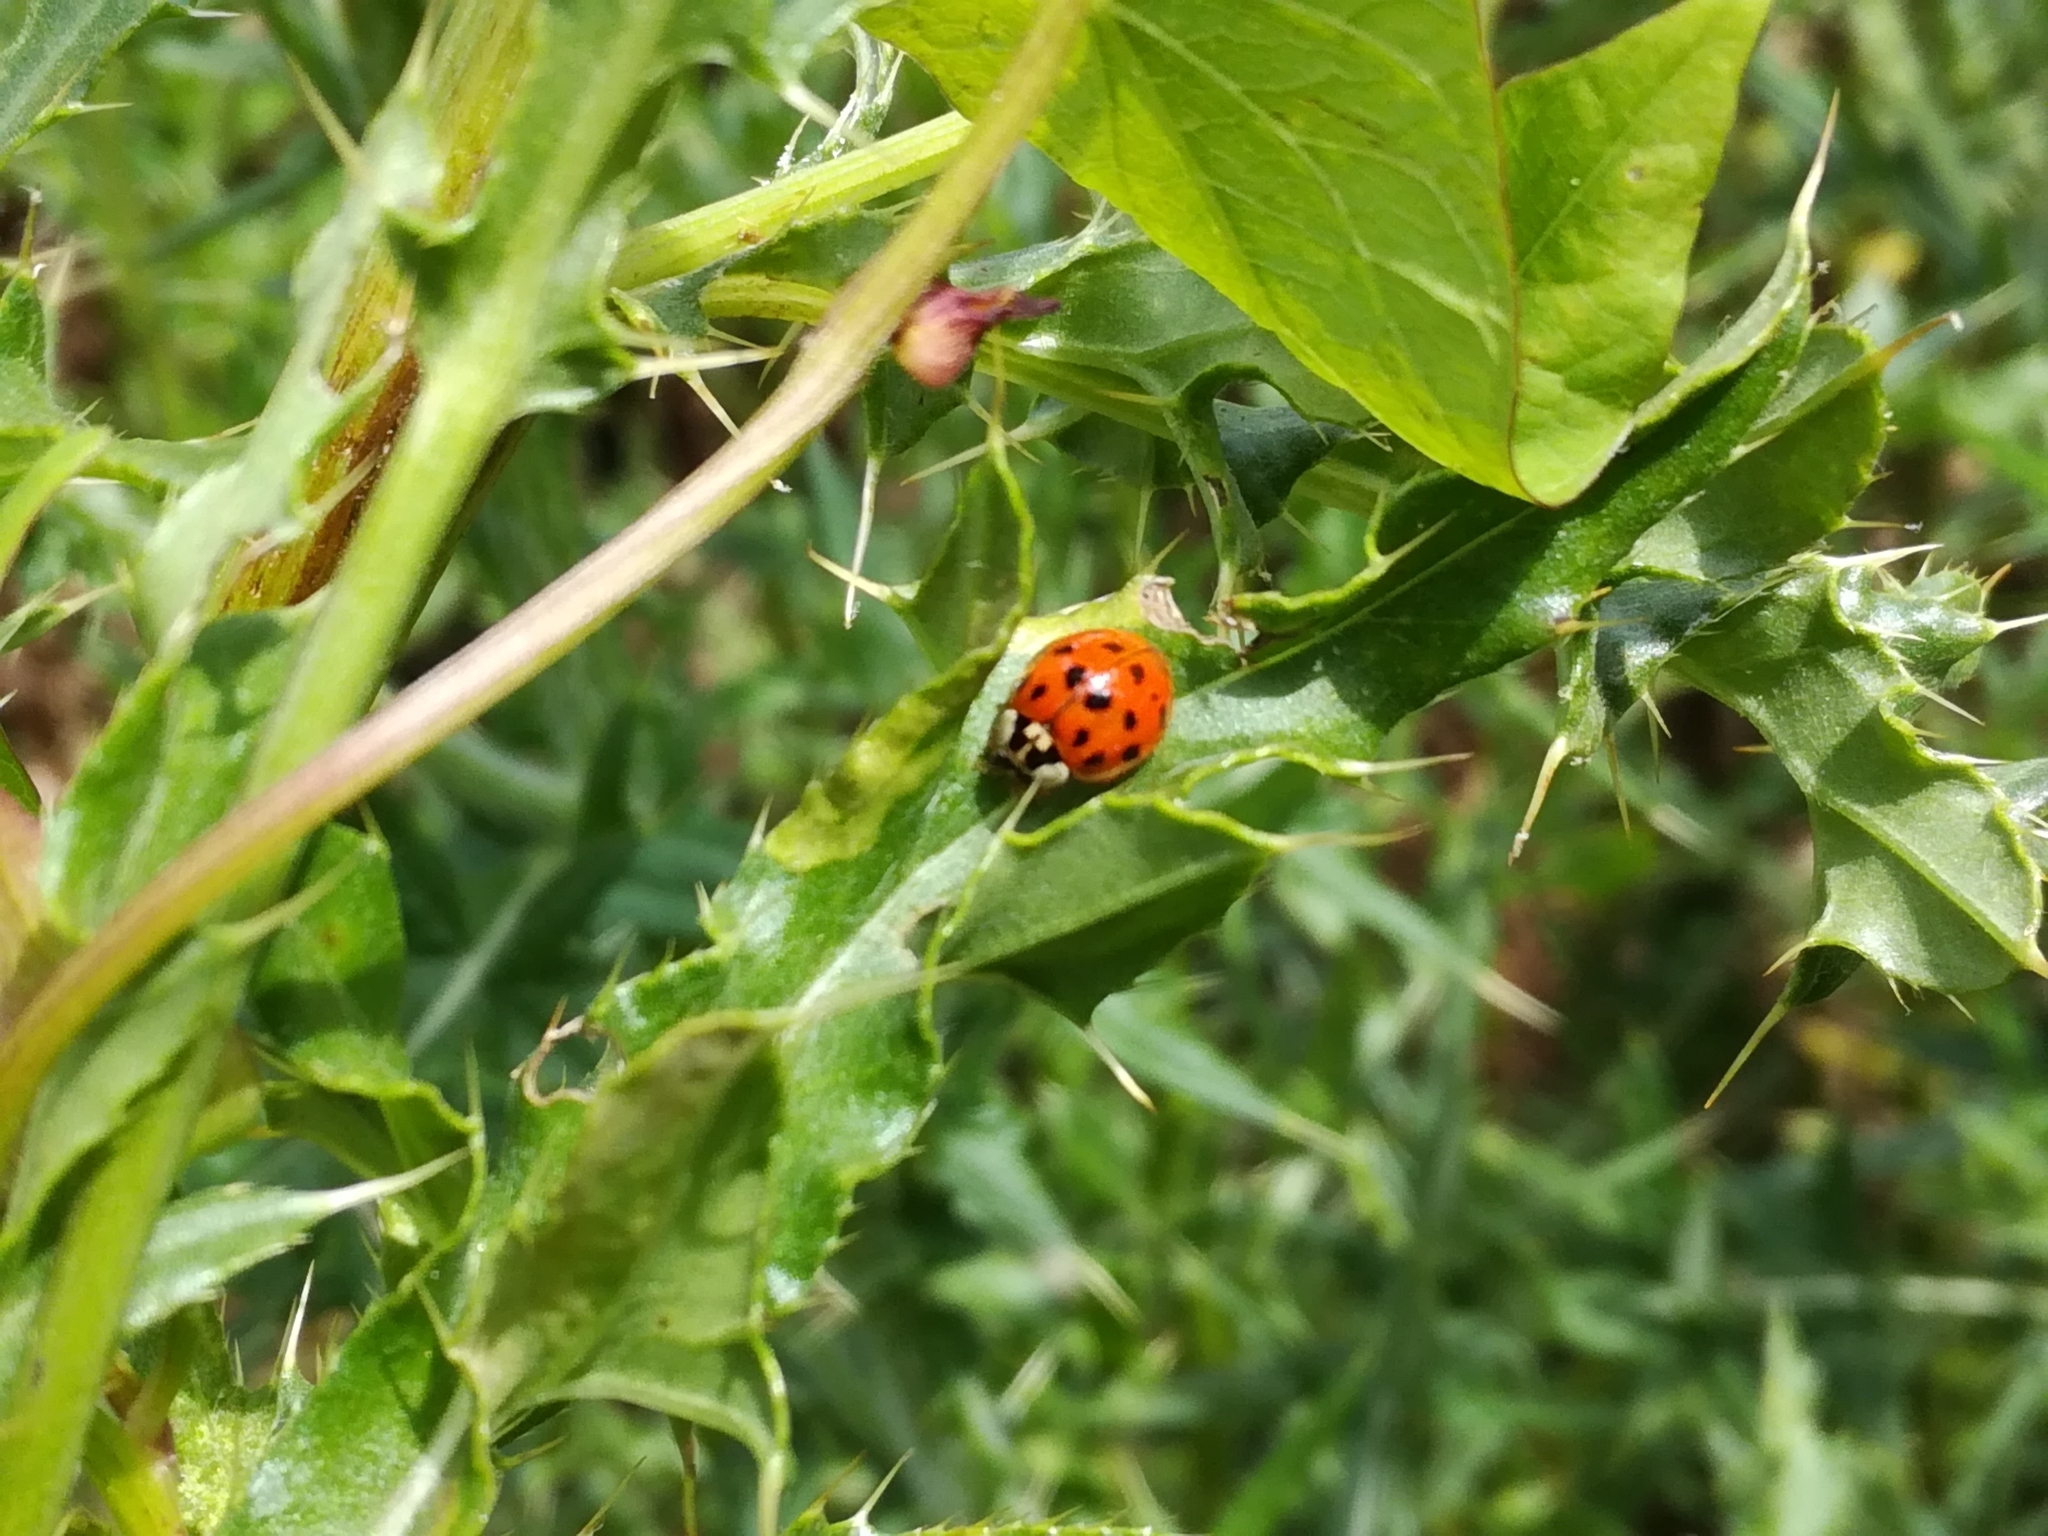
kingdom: Animalia
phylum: Arthropoda
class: Insecta
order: Coleoptera
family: Coccinellidae
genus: Harmonia
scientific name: Harmonia axyridis
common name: Harlequin ladybird
